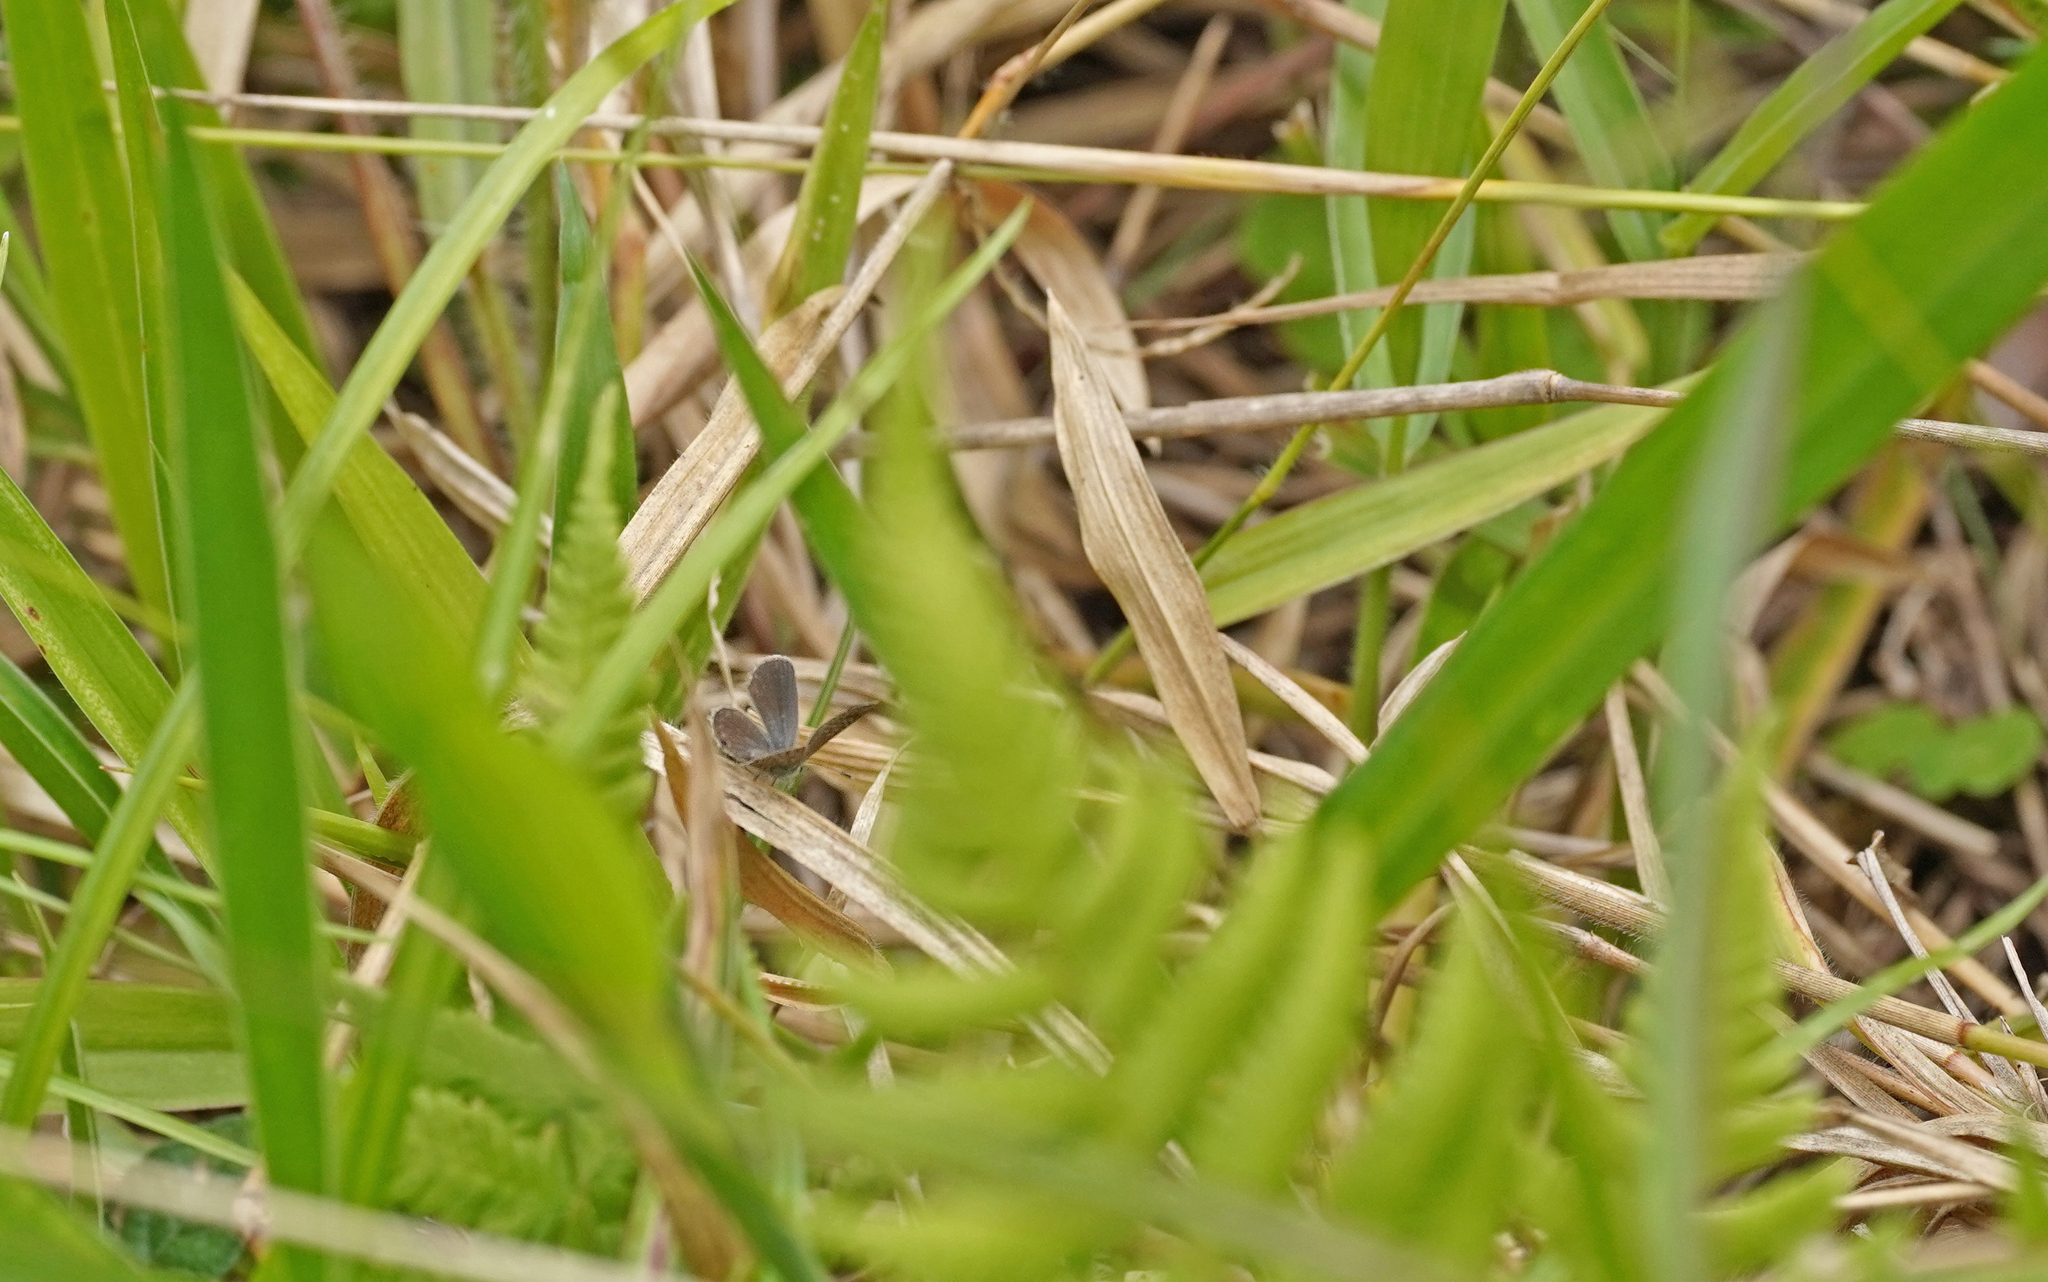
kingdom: Animalia
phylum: Arthropoda
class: Insecta
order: Lepidoptera
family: Lycaenidae
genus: Hemiargus
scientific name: Hemiargus hanno
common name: Common blue
